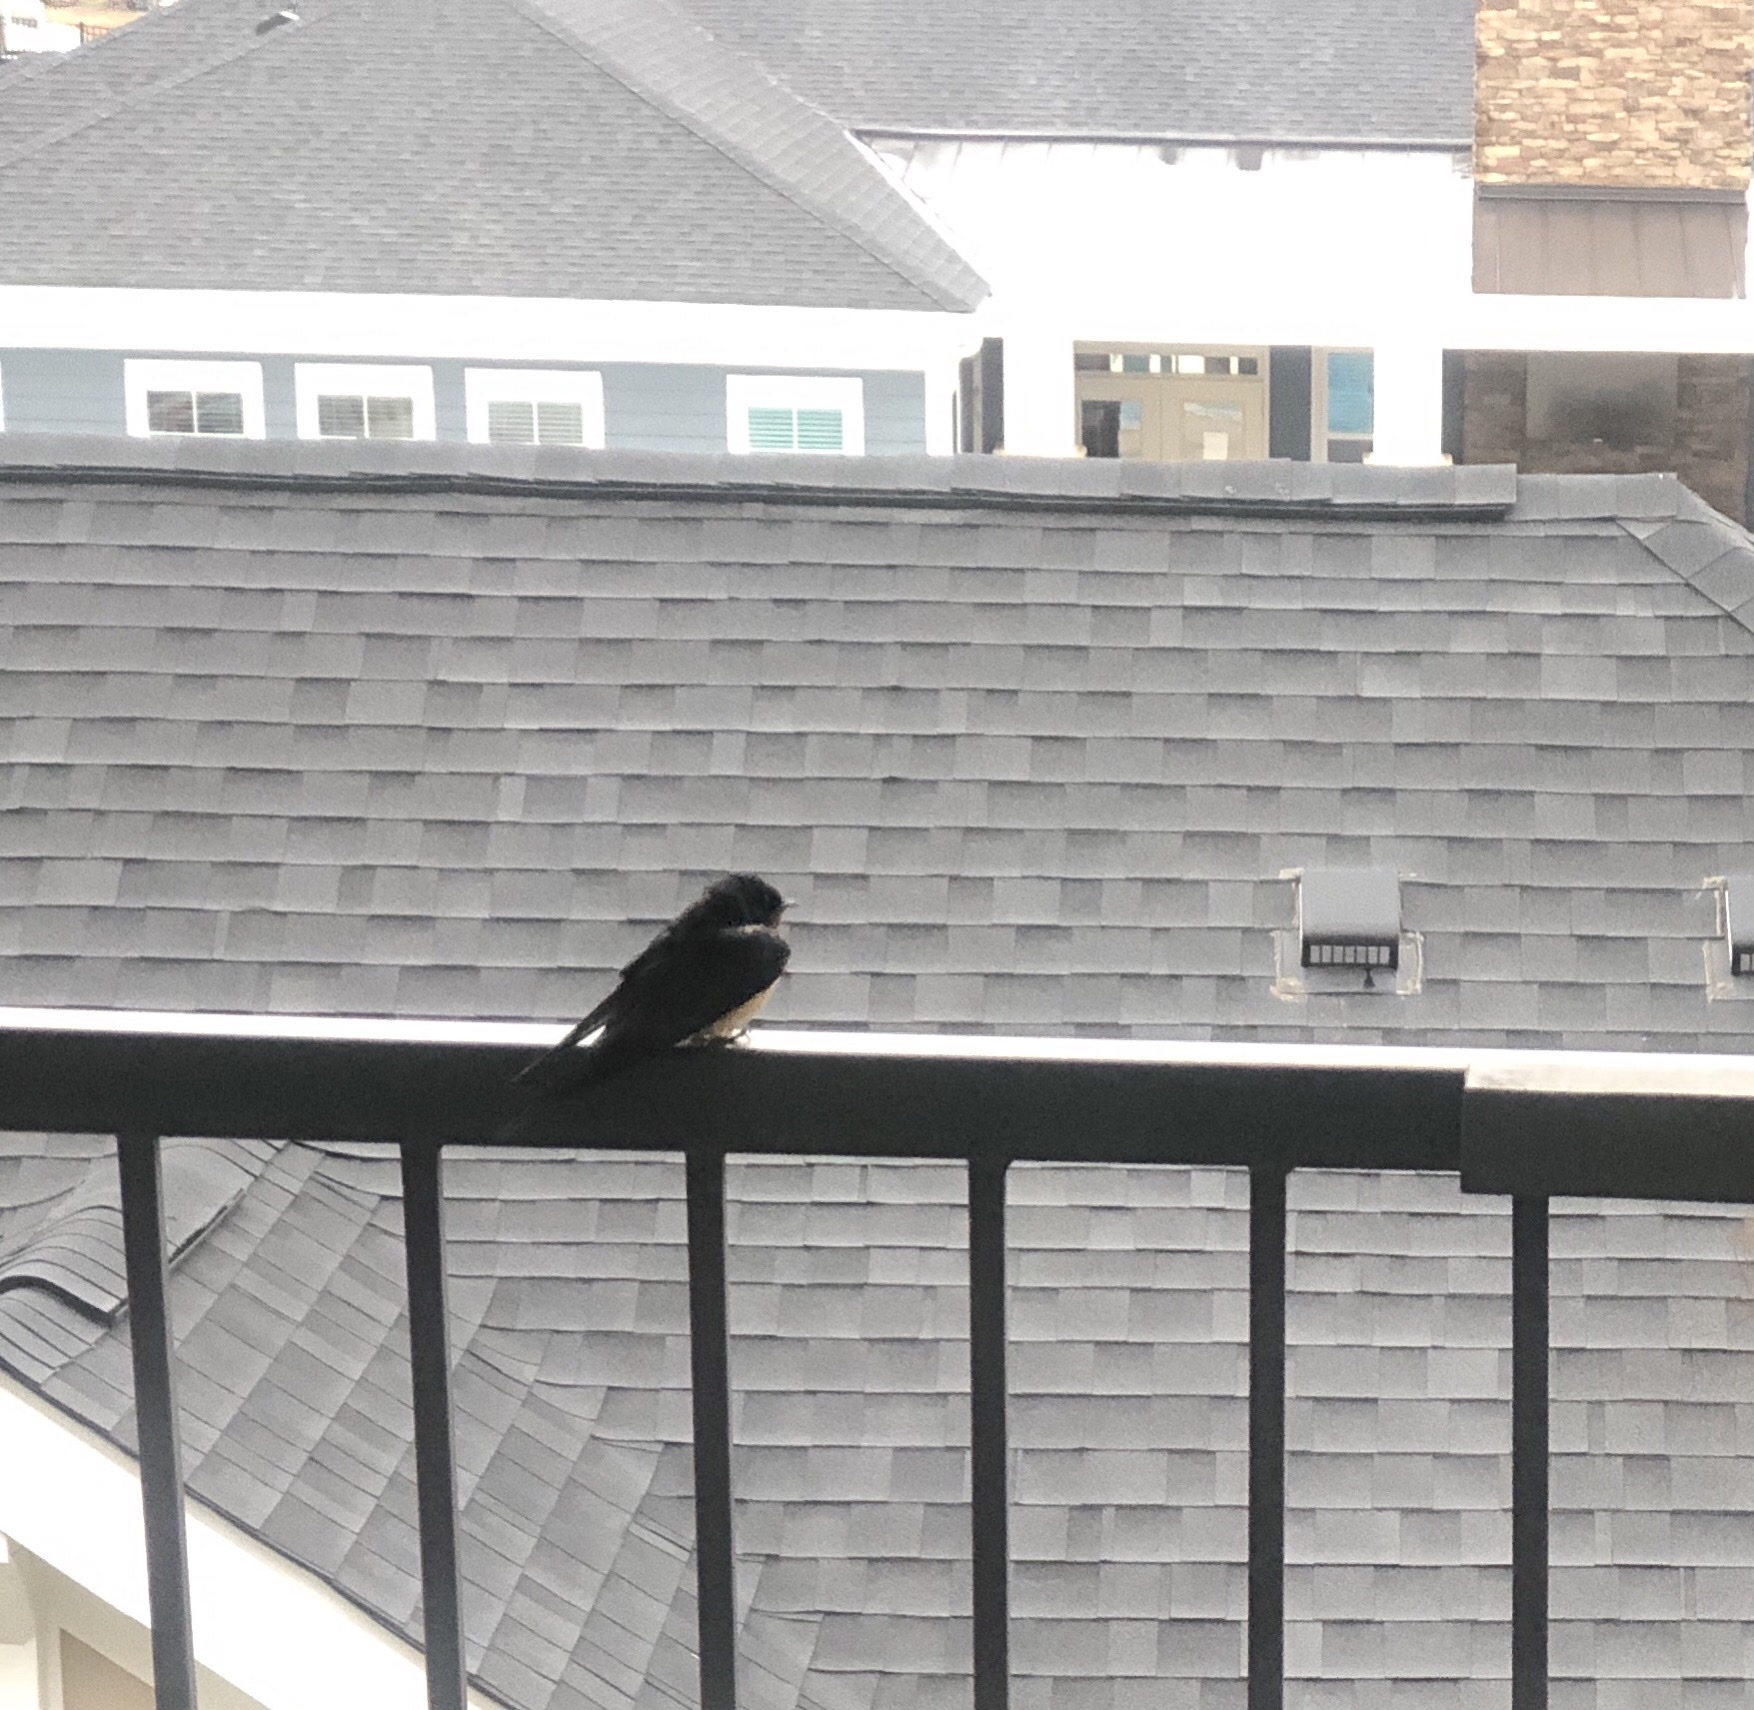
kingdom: Animalia
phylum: Chordata
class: Aves
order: Passeriformes
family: Hirundinidae
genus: Hirundo
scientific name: Hirundo rustica
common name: Barn swallow
